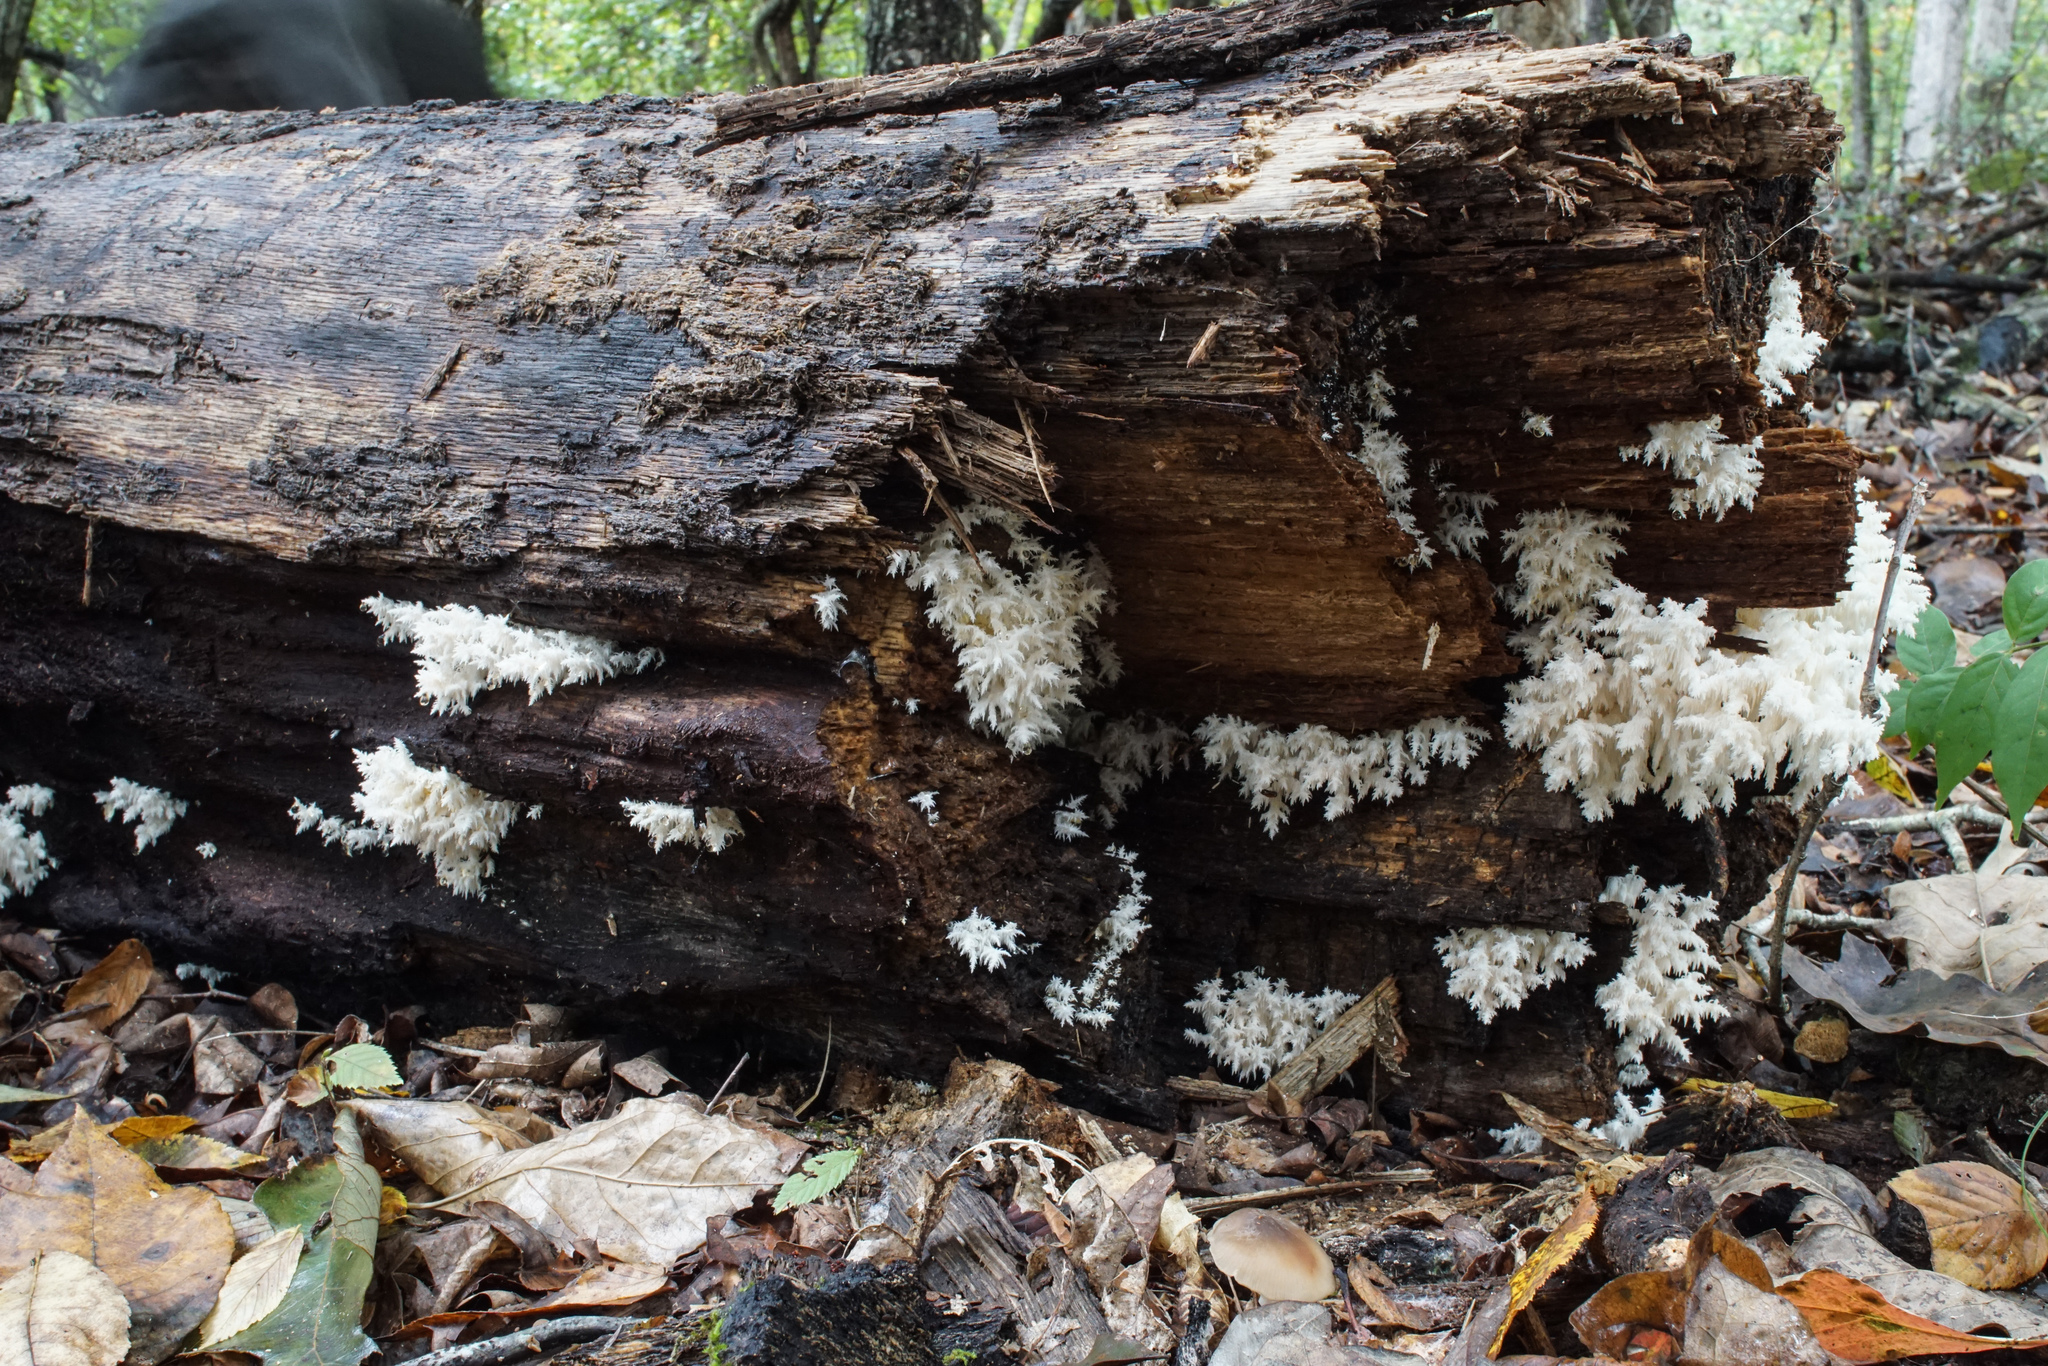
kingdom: Fungi
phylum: Basidiomycota
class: Agaricomycetes
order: Russulales
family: Hericiaceae
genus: Hericium
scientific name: Hericium coralloides
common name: Coral tooth
